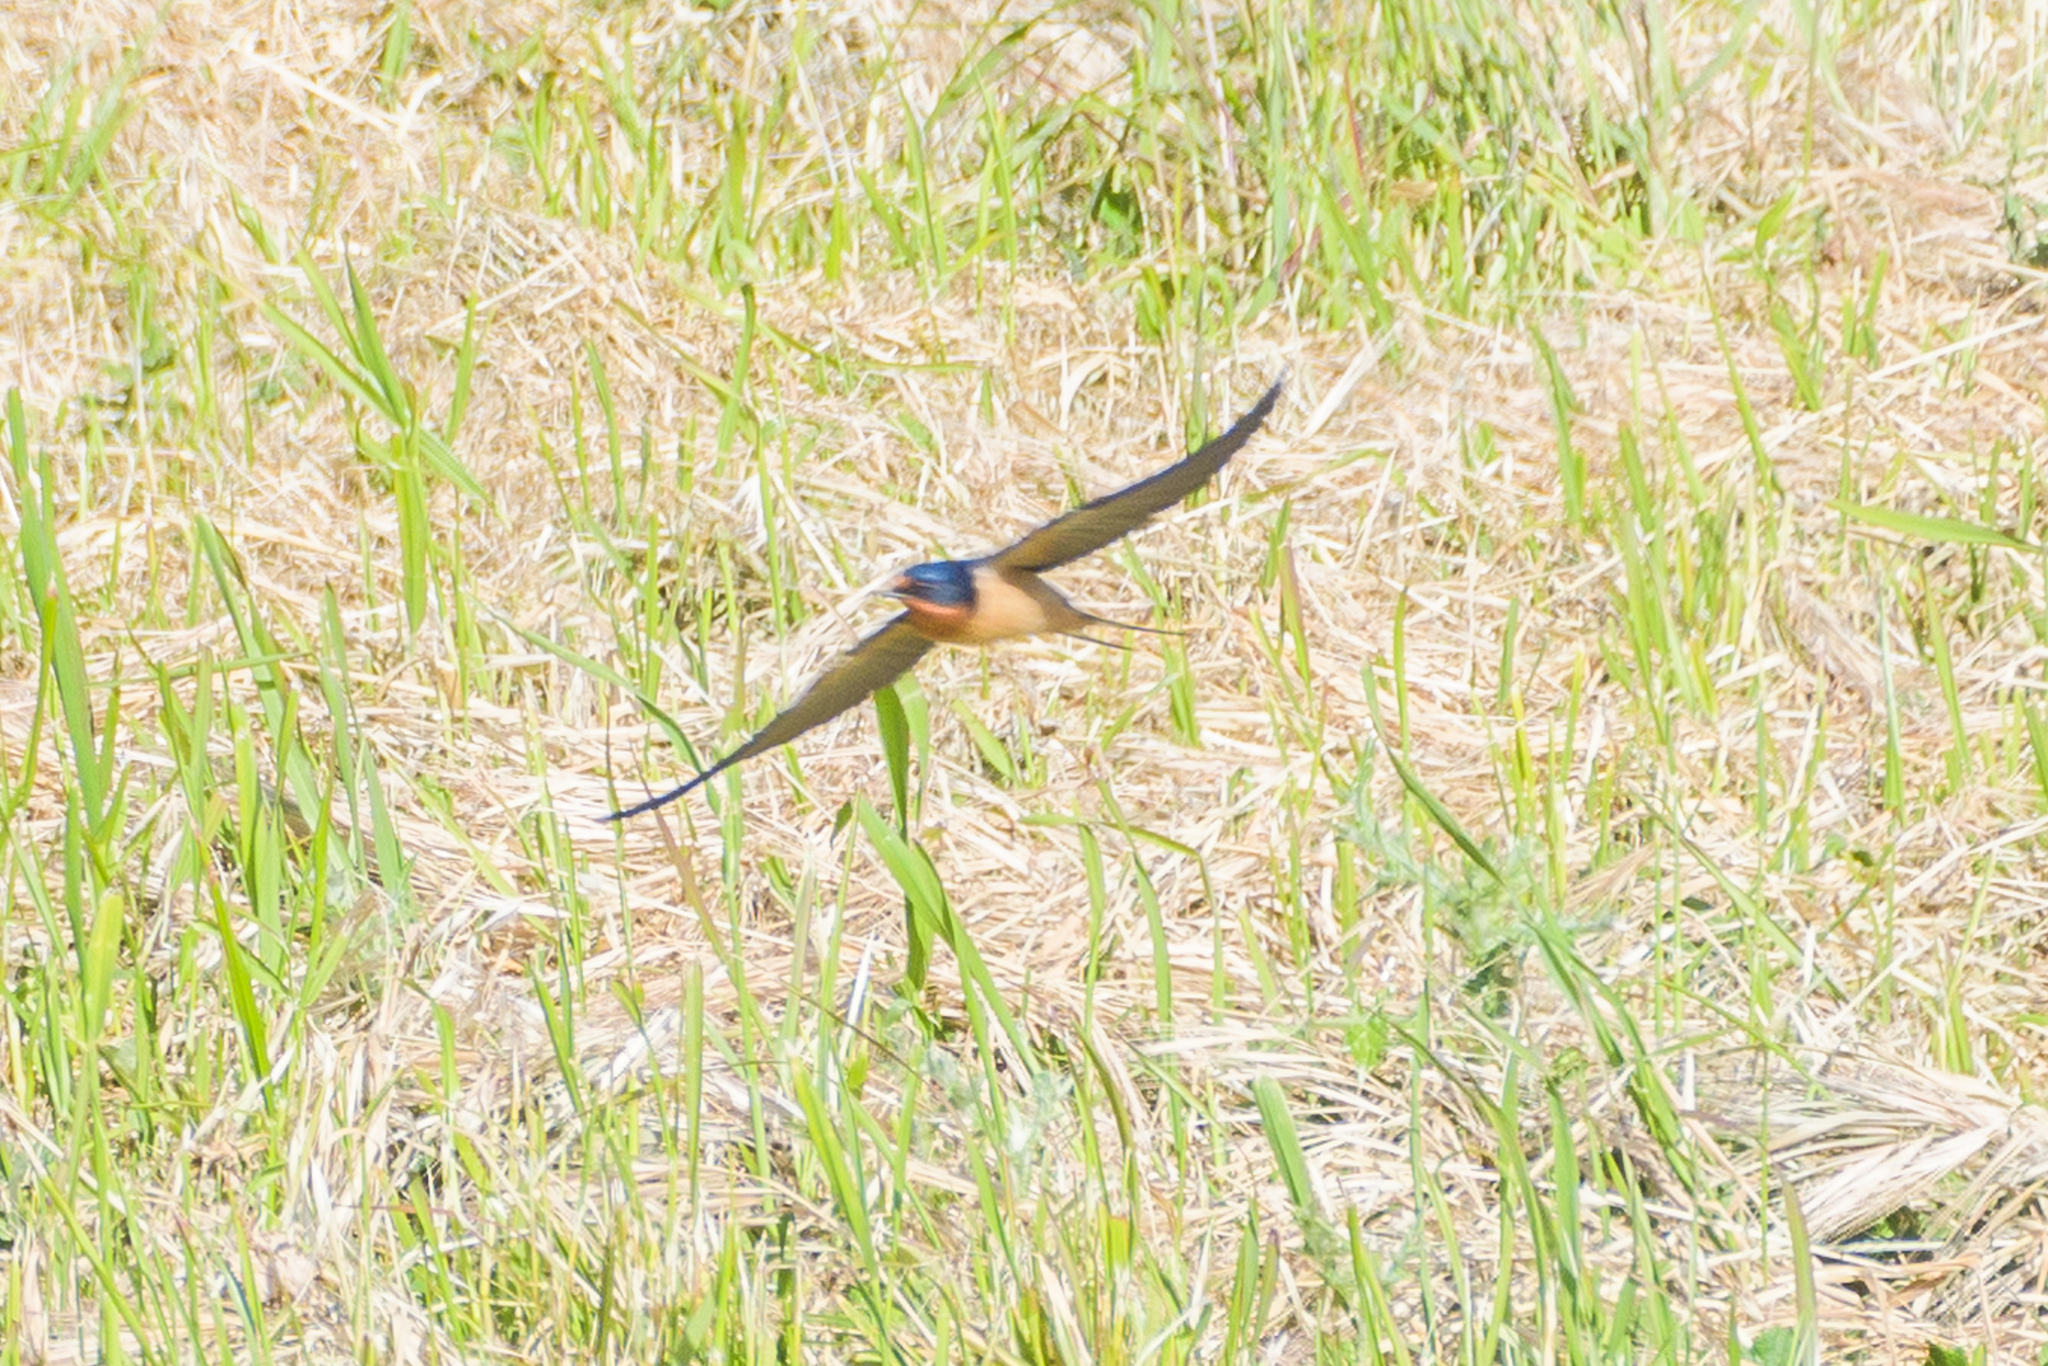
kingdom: Animalia
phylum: Chordata
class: Aves
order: Passeriformes
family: Hirundinidae
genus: Hirundo
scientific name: Hirundo rustica
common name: Barn swallow
